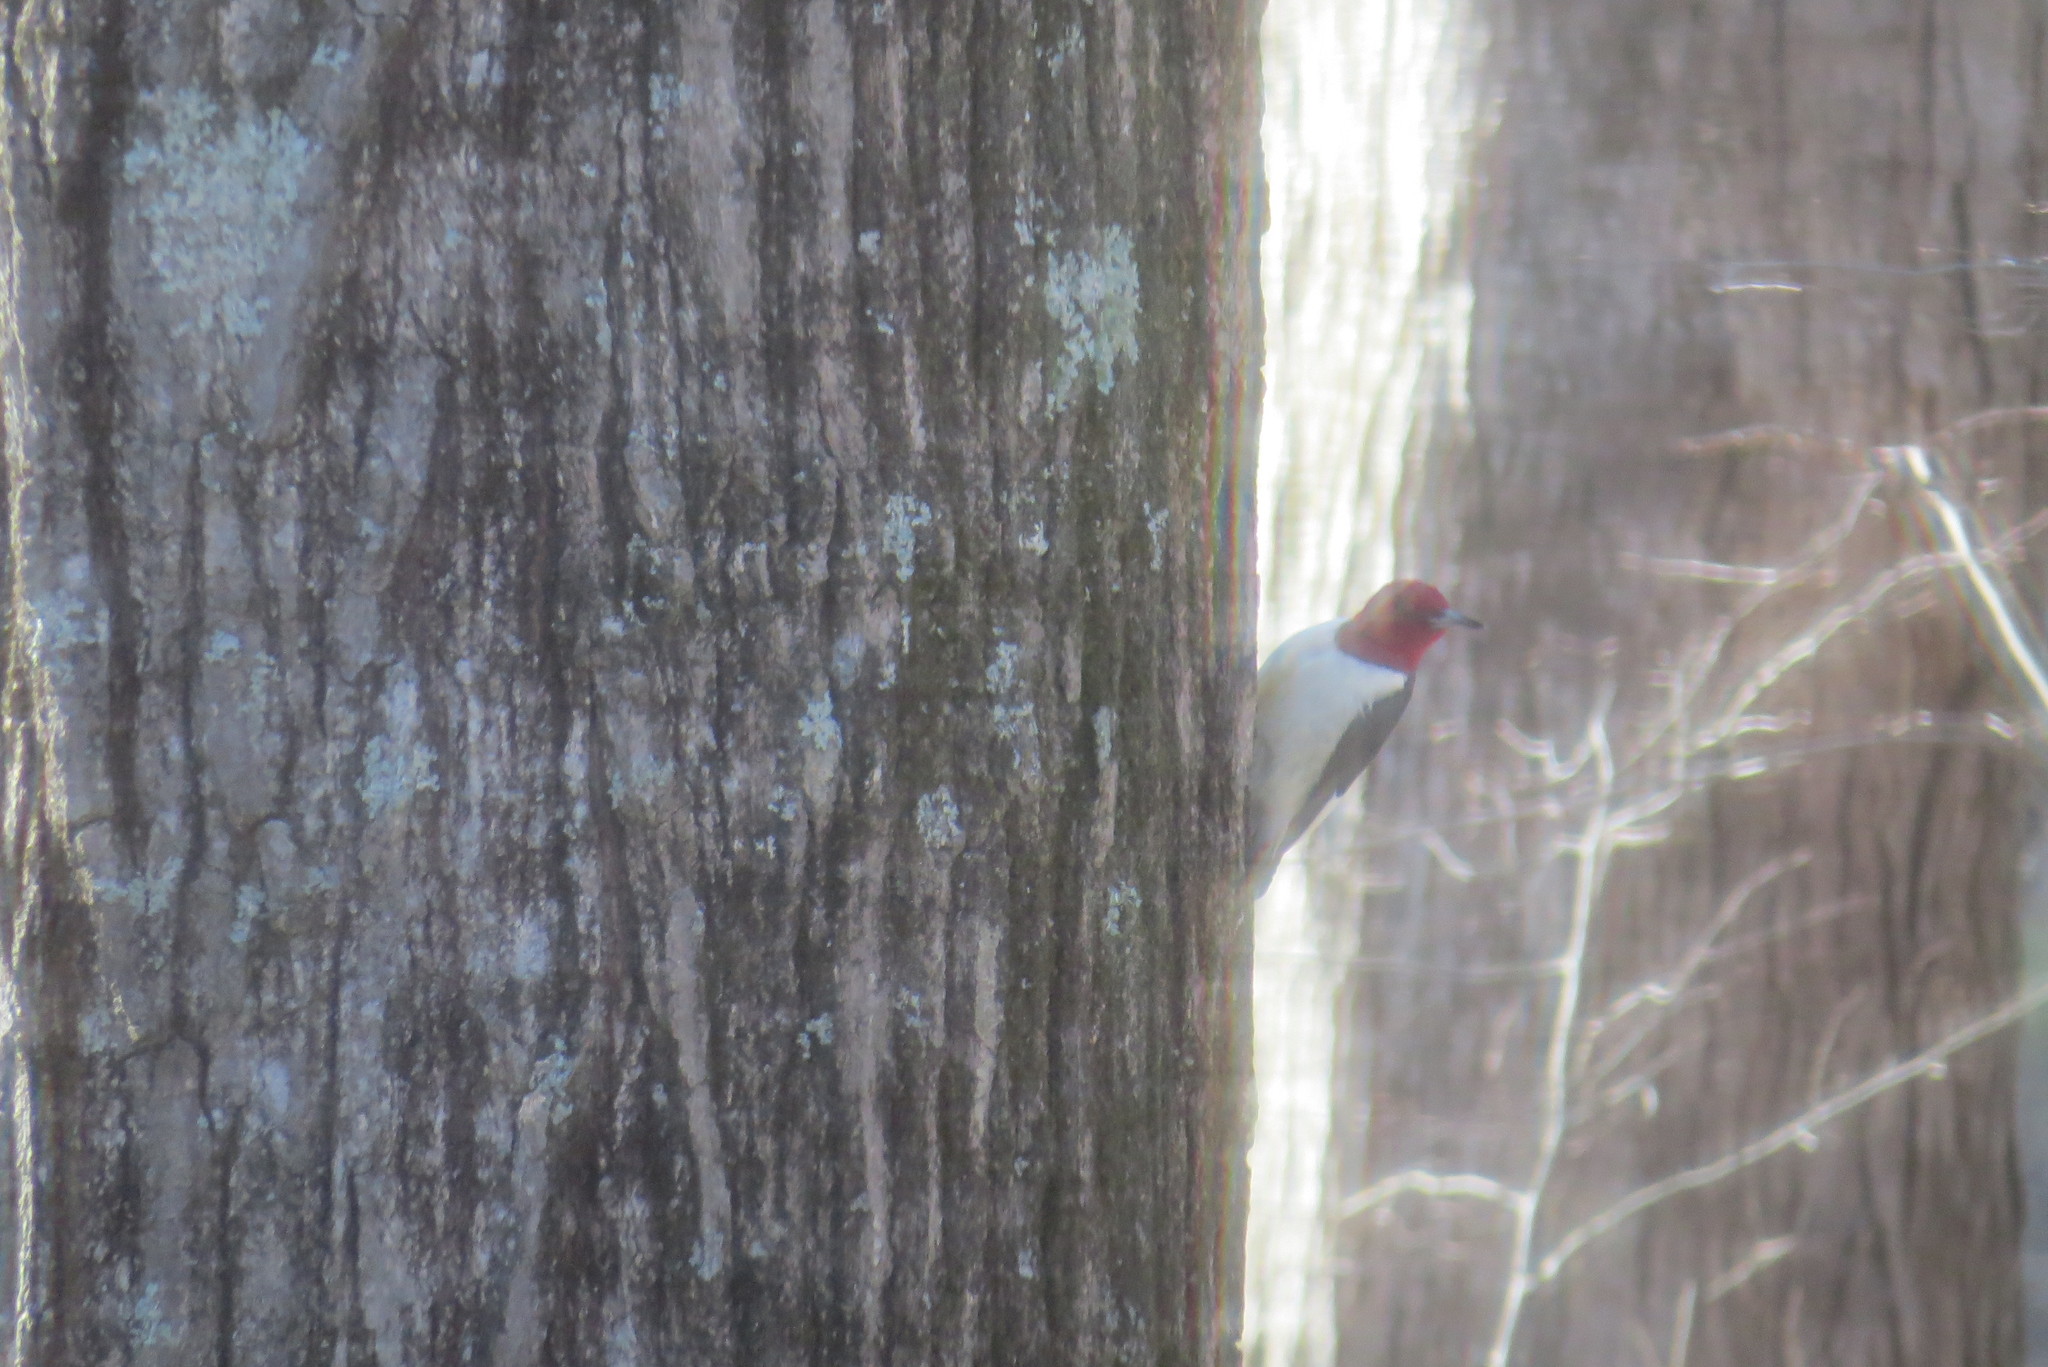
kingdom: Animalia
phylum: Chordata
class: Aves
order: Piciformes
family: Picidae
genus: Melanerpes
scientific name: Melanerpes erythrocephalus
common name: Red-headed woodpecker
